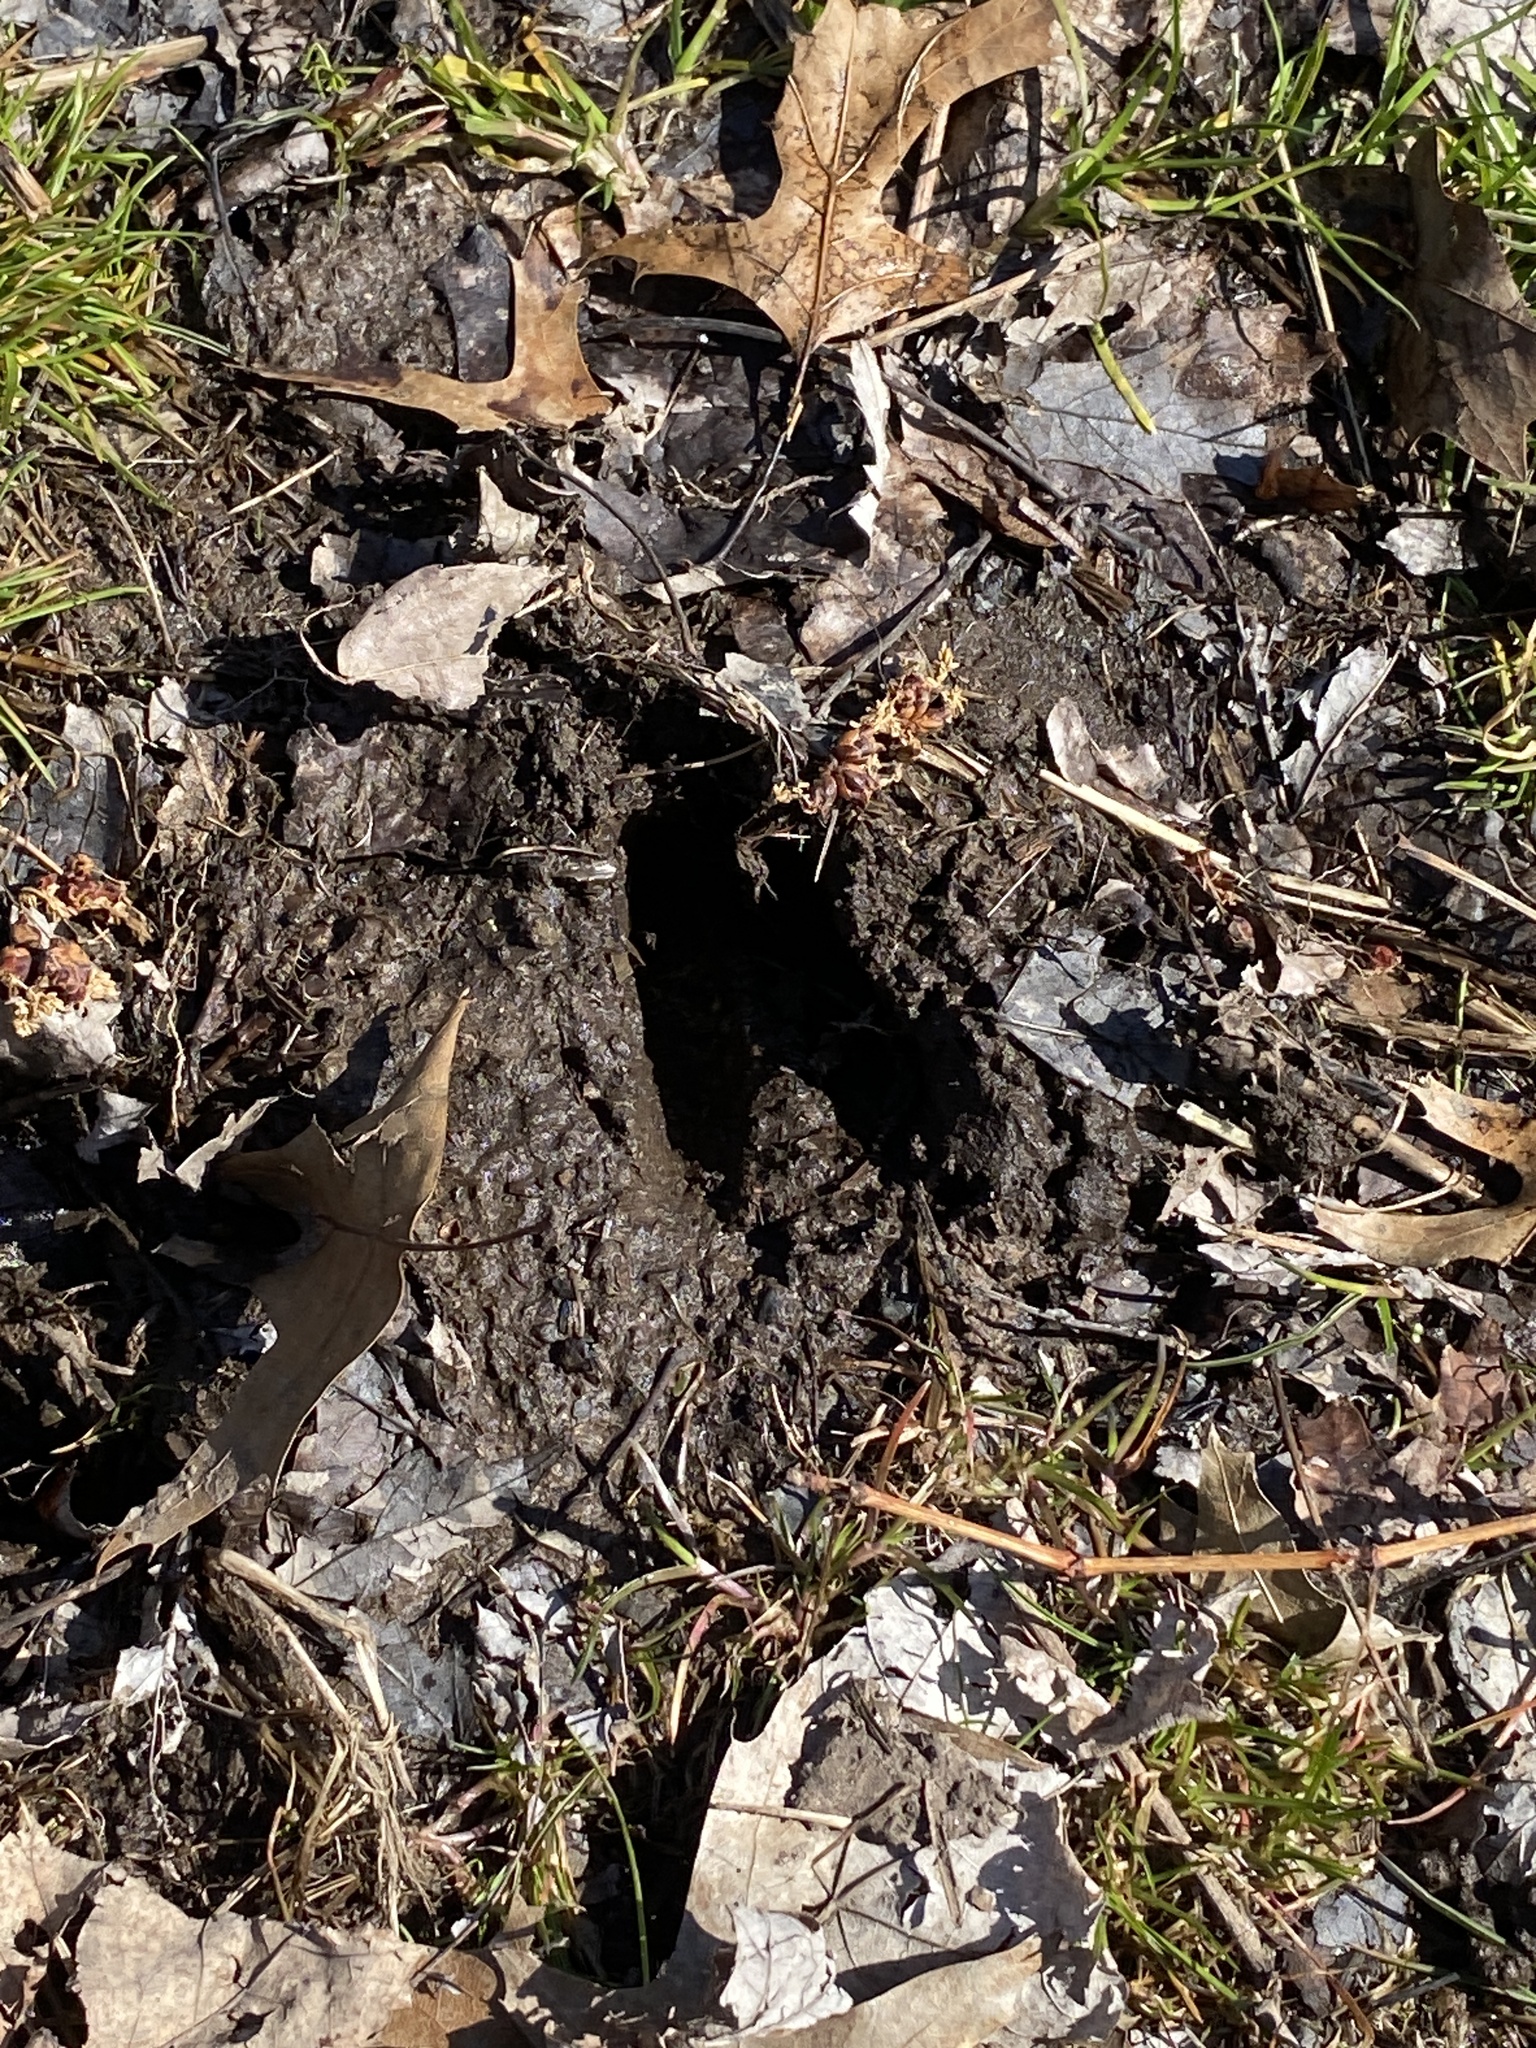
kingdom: Animalia
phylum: Chordata
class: Mammalia
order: Artiodactyla
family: Cervidae
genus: Odocoileus
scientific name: Odocoileus virginianus
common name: White-tailed deer
